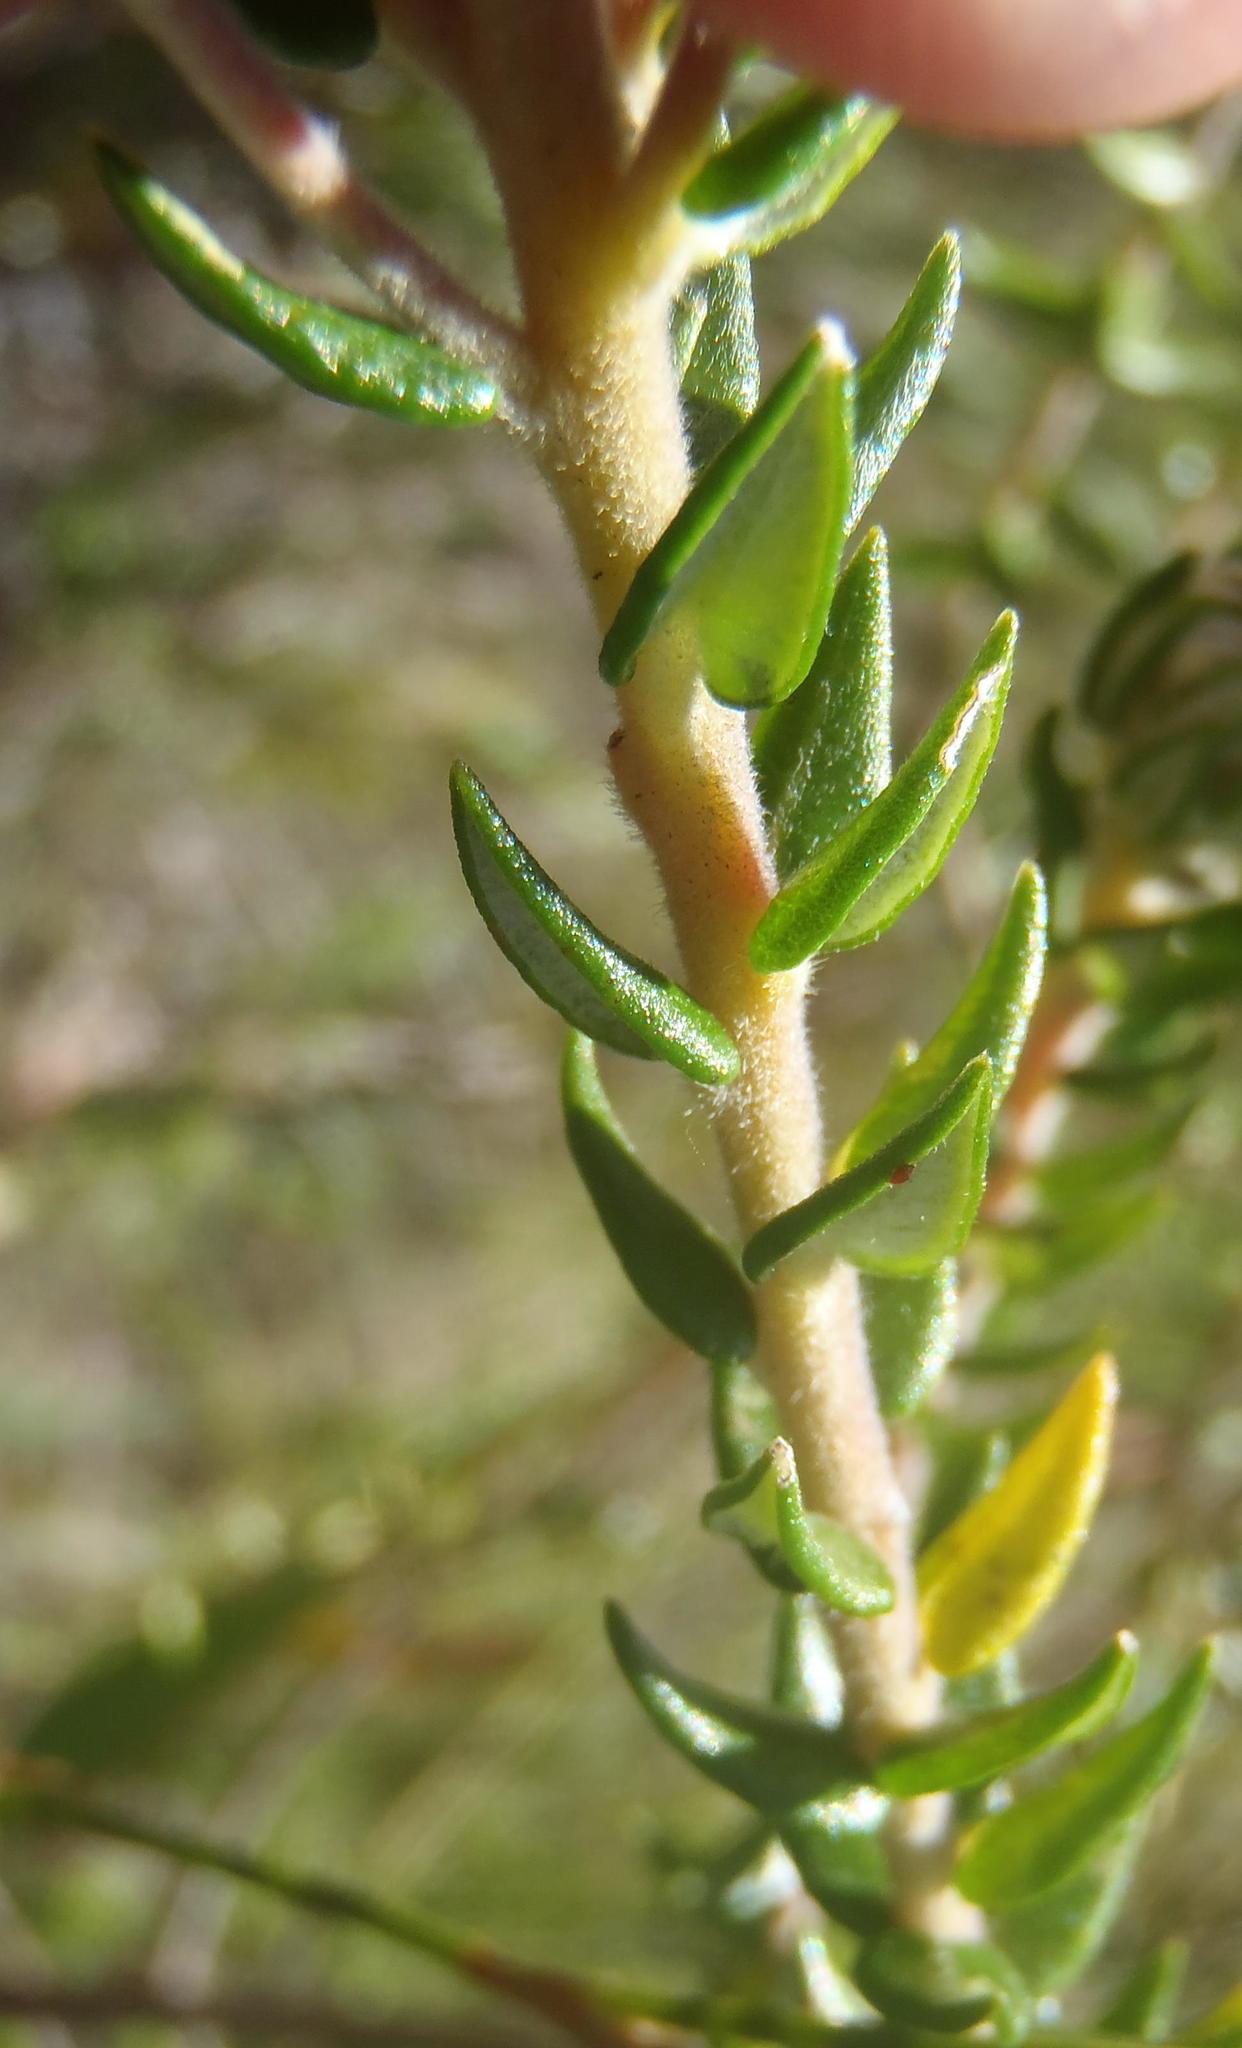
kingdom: Plantae
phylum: Tracheophyta
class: Magnoliopsida
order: Rosales
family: Rhamnaceae
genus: Phylica
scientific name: Phylica purpurea
